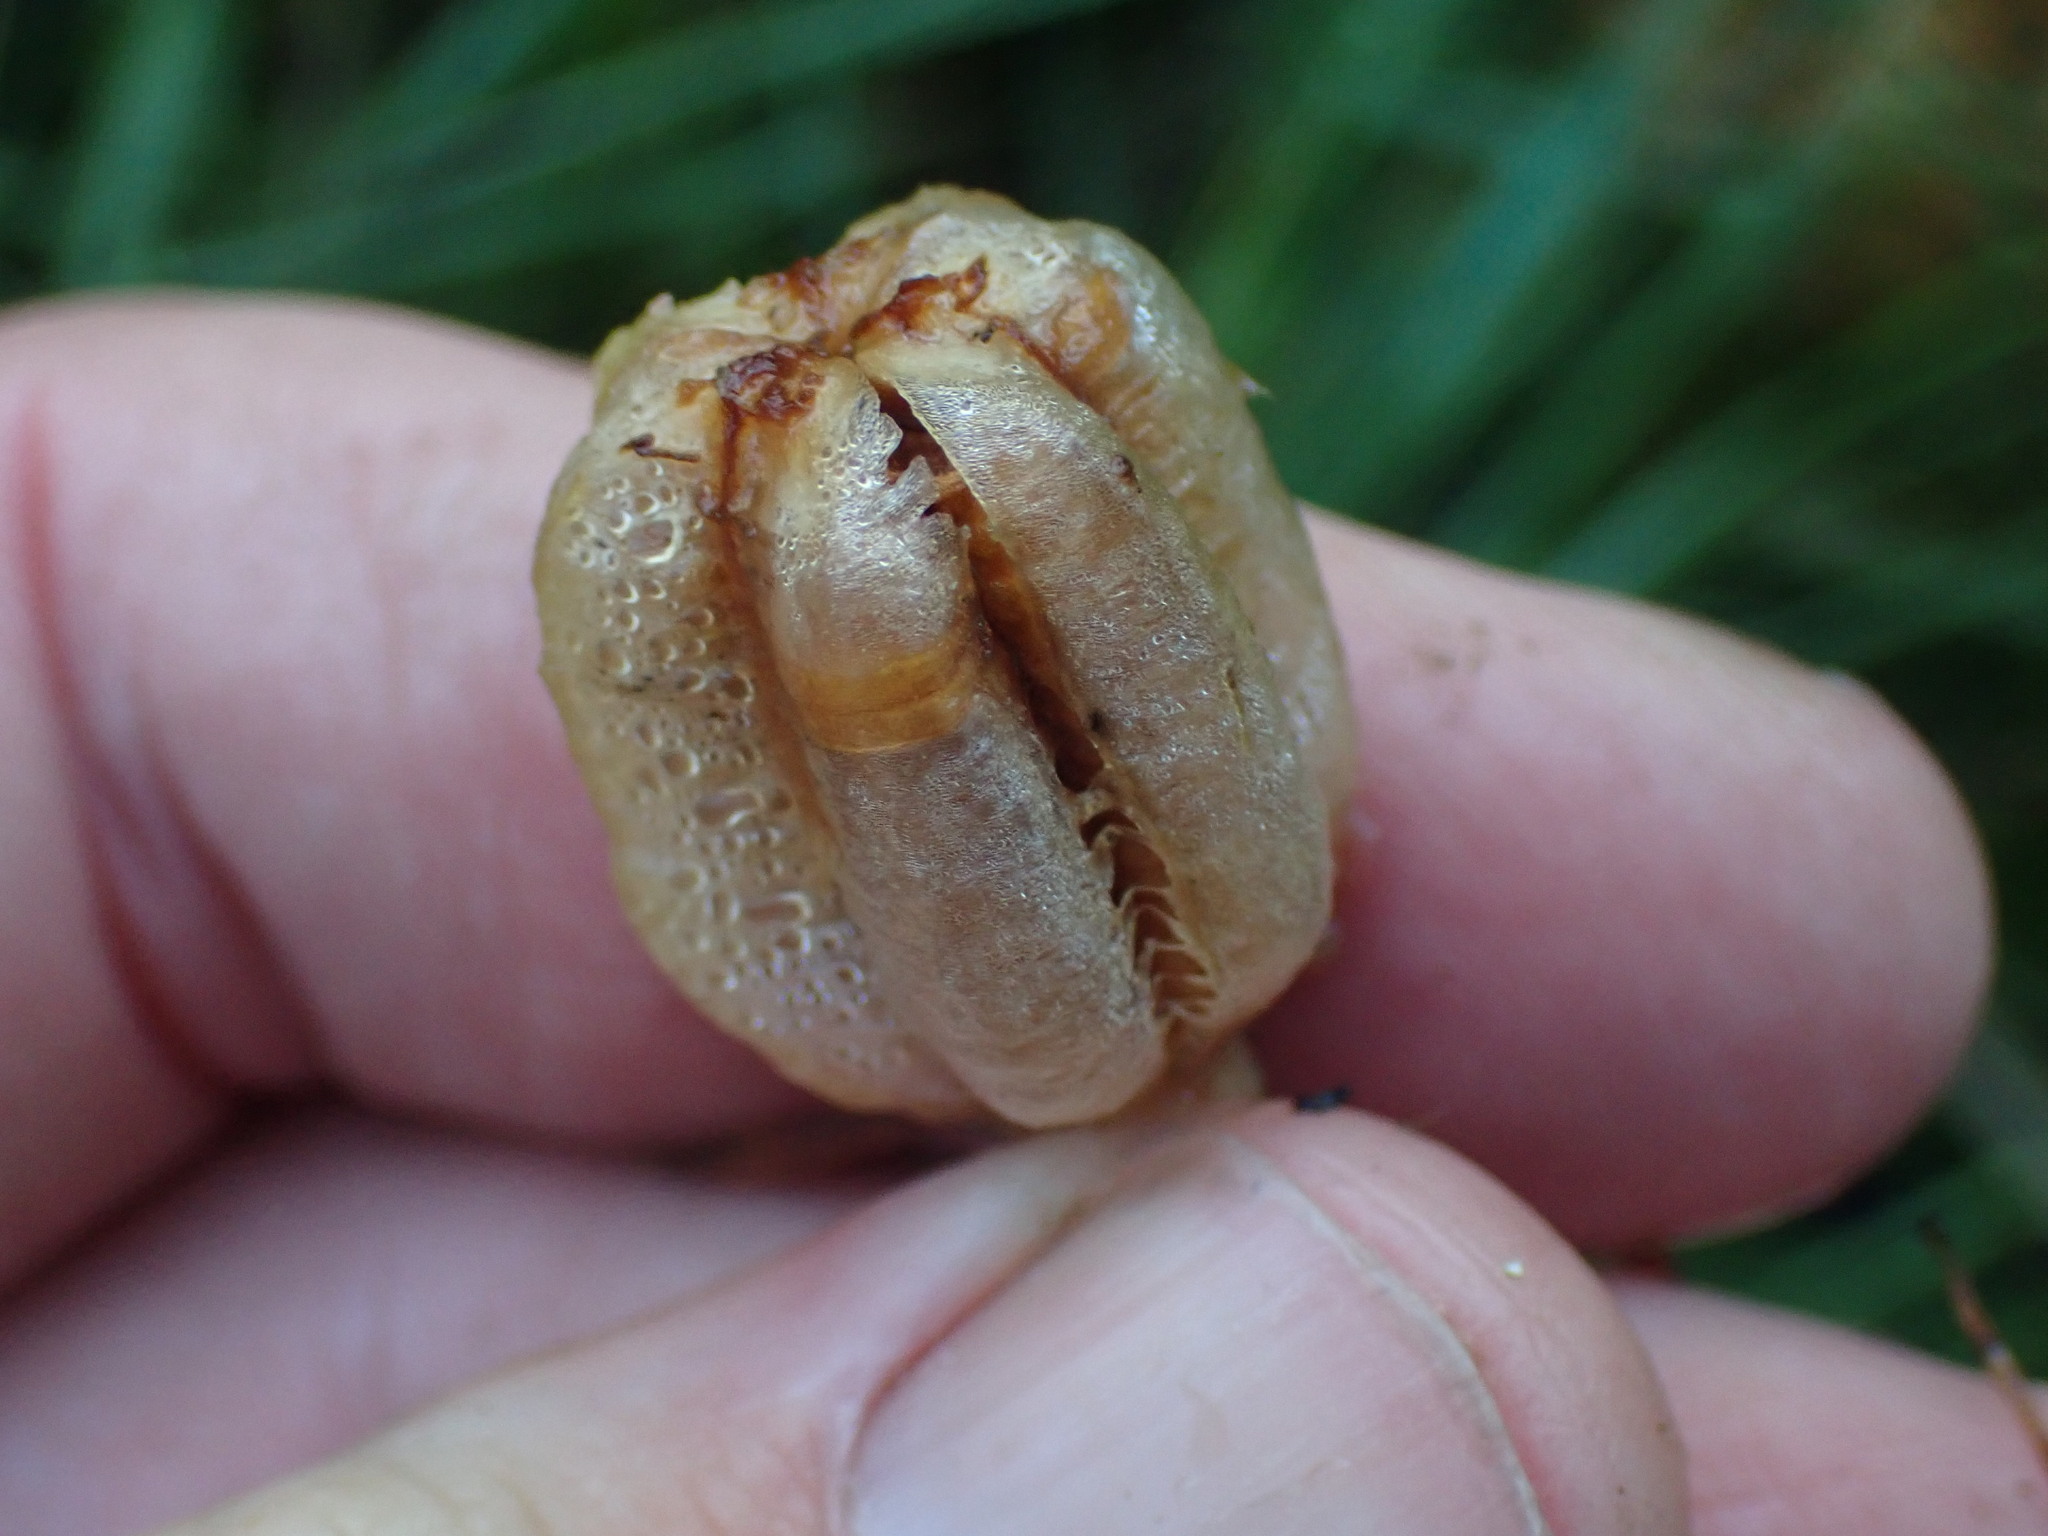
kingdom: Plantae
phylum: Tracheophyta
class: Liliopsida
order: Liliales
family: Liliaceae
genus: Fritillaria
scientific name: Fritillaria camschatcensis
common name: Kamchatka fritillary
